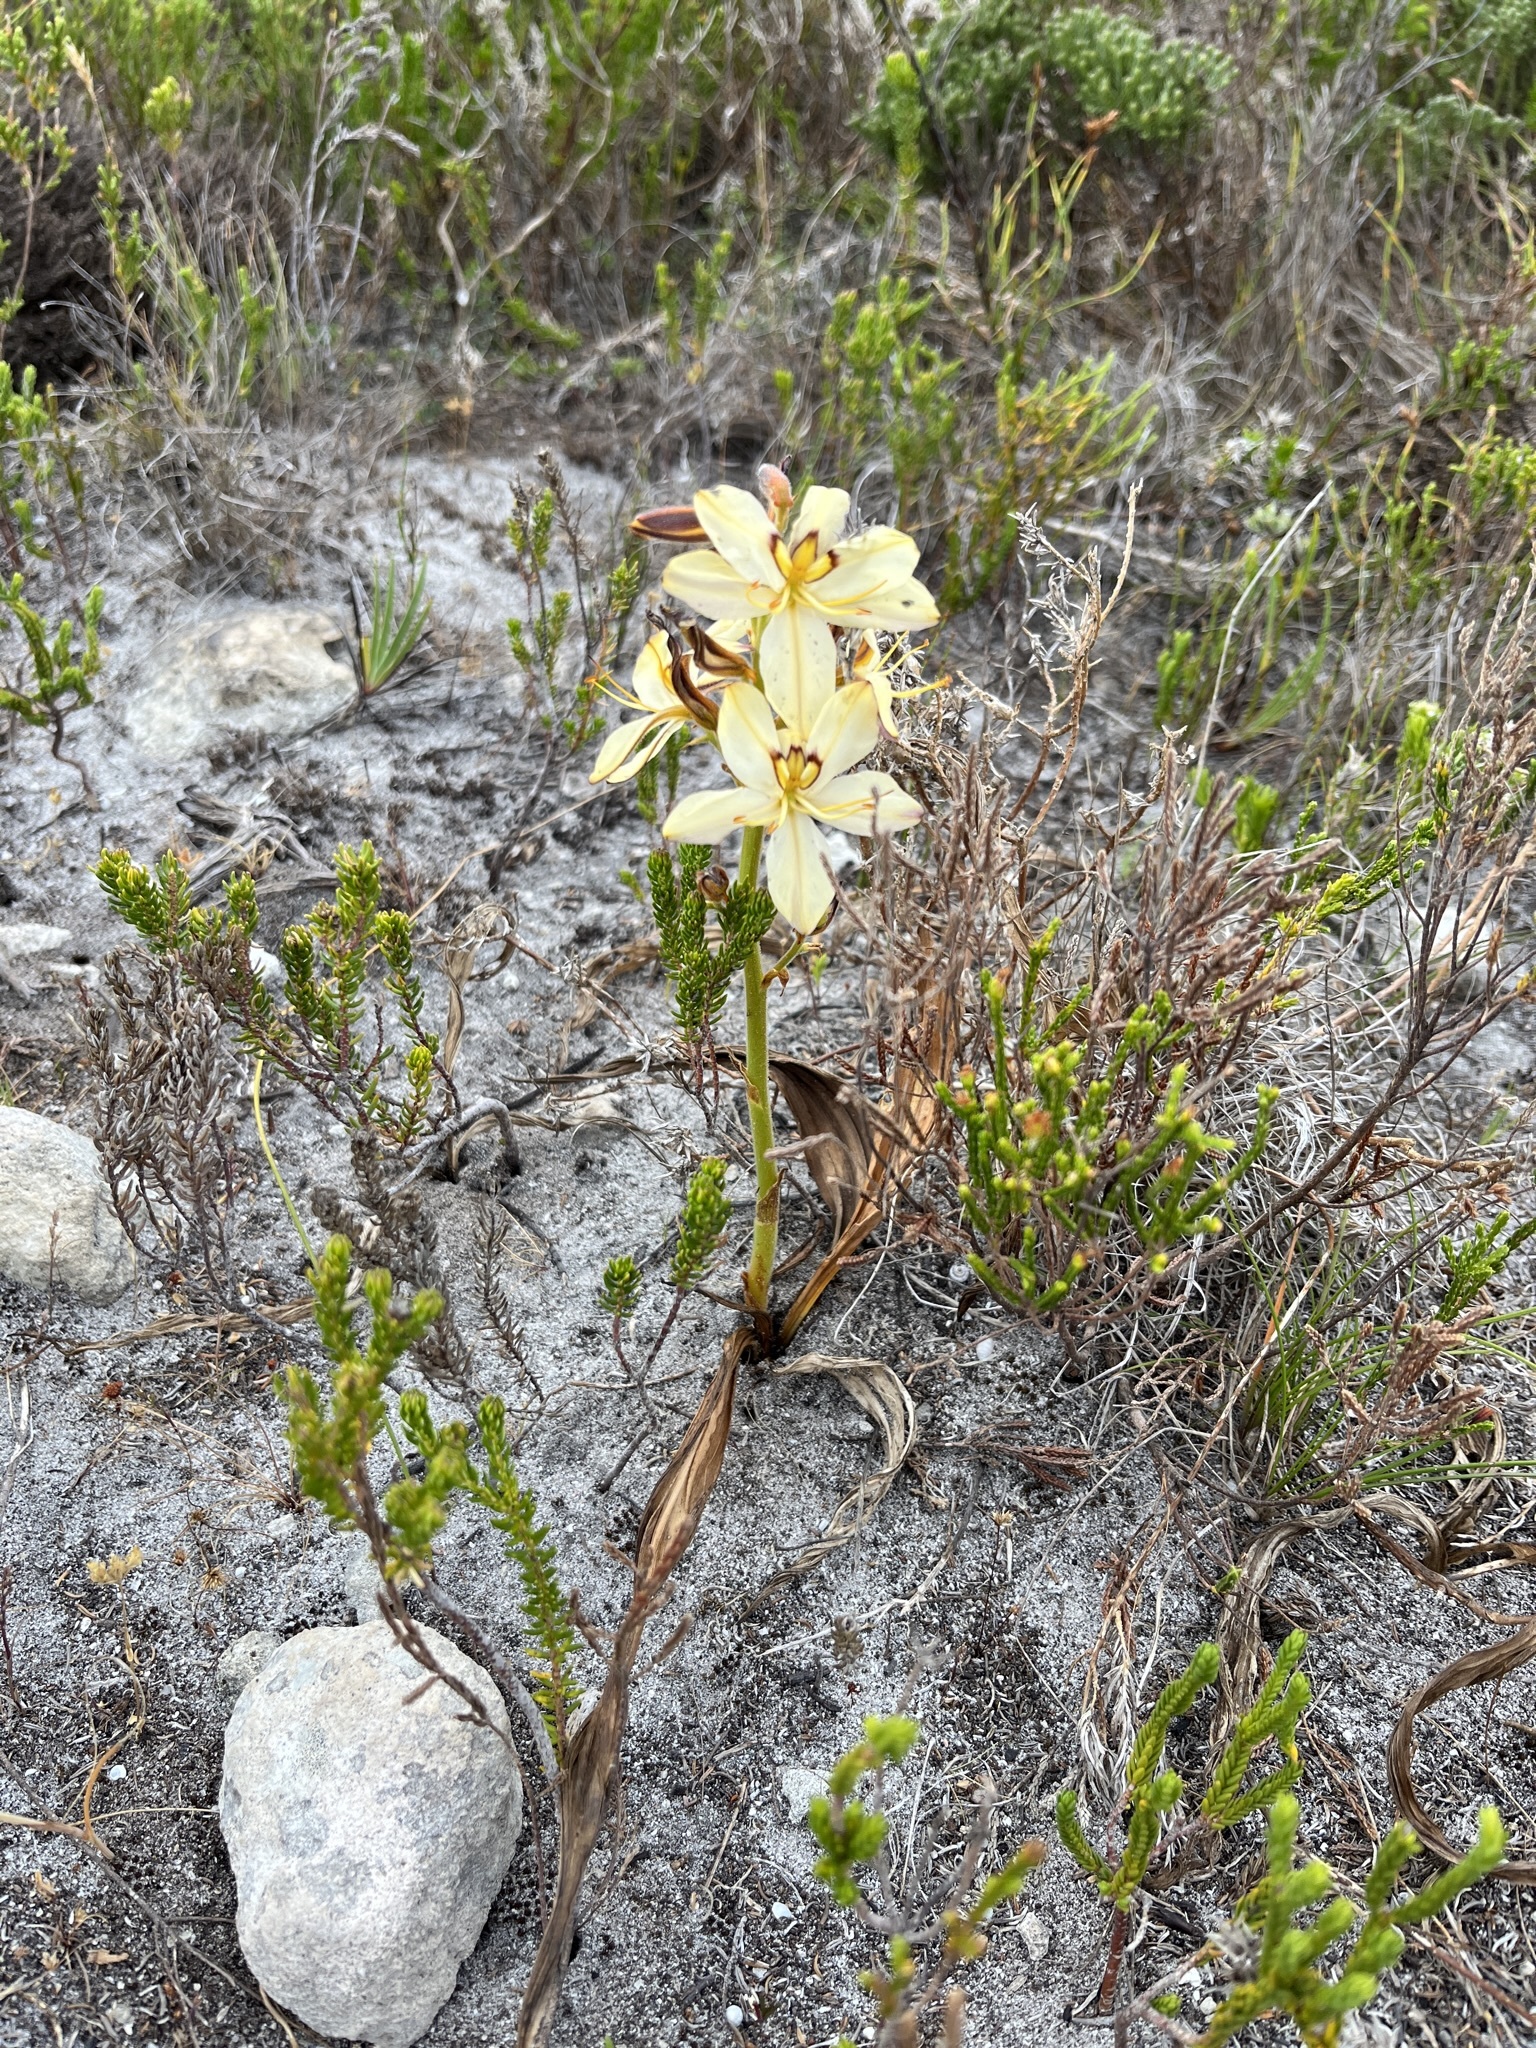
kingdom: Plantae
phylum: Tracheophyta
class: Liliopsida
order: Commelinales
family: Haemodoraceae
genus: Wachendorfia
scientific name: Wachendorfia paniculata
